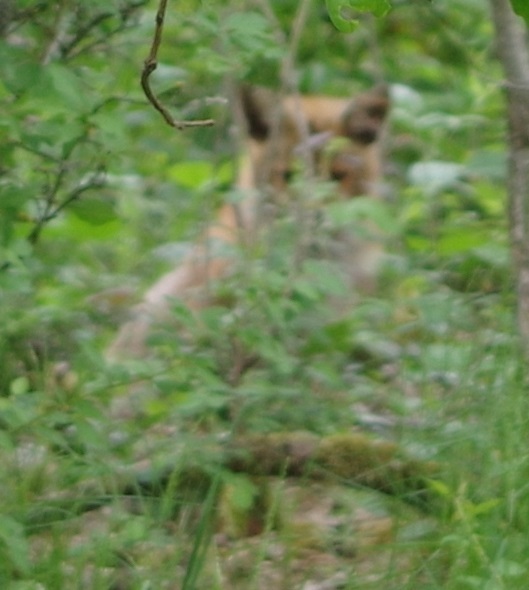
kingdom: Animalia
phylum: Chordata
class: Mammalia
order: Carnivora
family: Canidae
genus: Vulpes
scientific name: Vulpes vulpes
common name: Red fox
